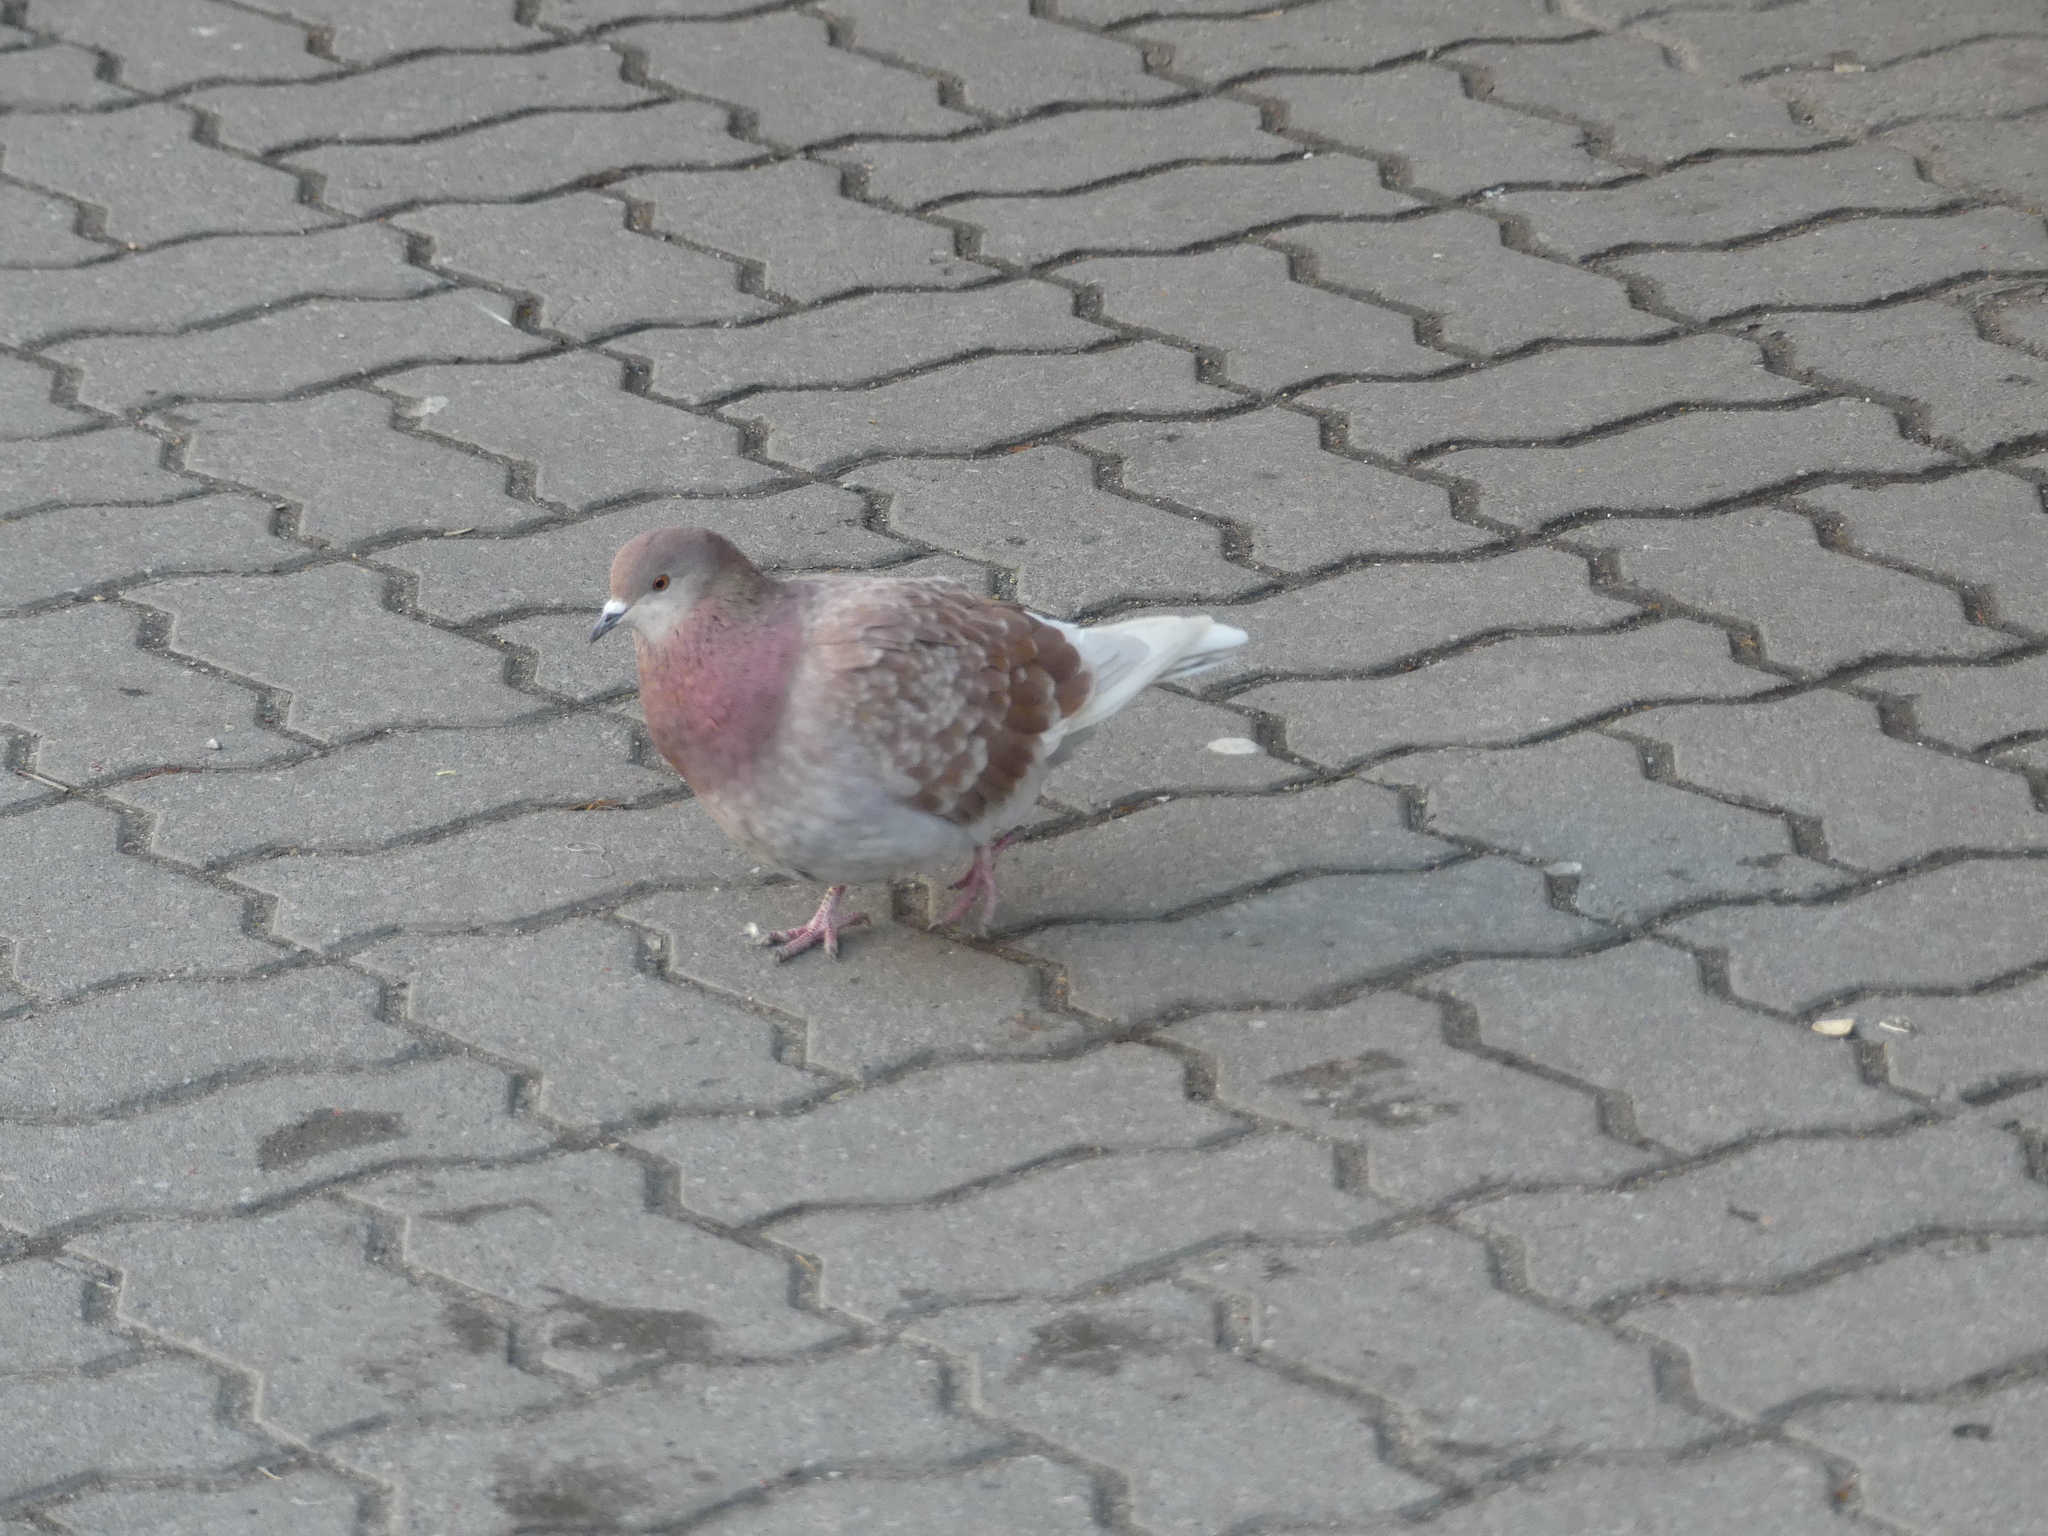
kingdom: Animalia
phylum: Chordata
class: Aves
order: Columbiformes
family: Columbidae
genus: Columba
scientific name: Columba livia
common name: Rock pigeon
